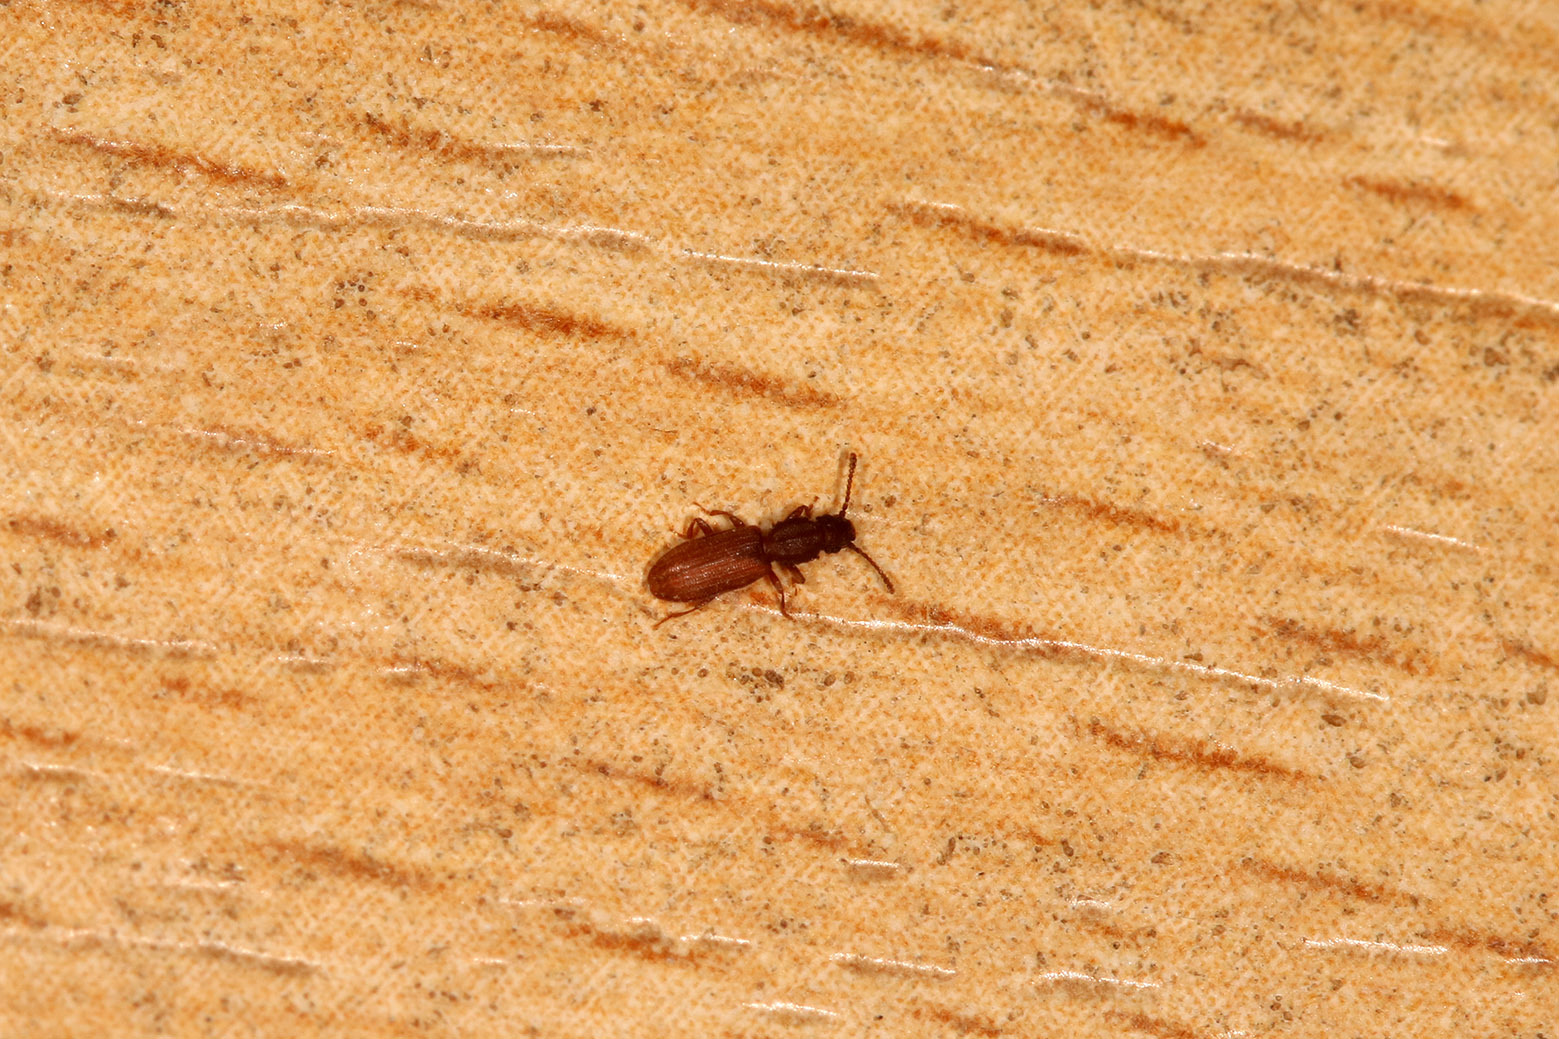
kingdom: Animalia
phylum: Arthropoda
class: Insecta
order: Coleoptera
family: Silvanidae
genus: Oryzaephilus
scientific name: Oryzaephilus surinamensis
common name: Sawtoothed grain beetle
